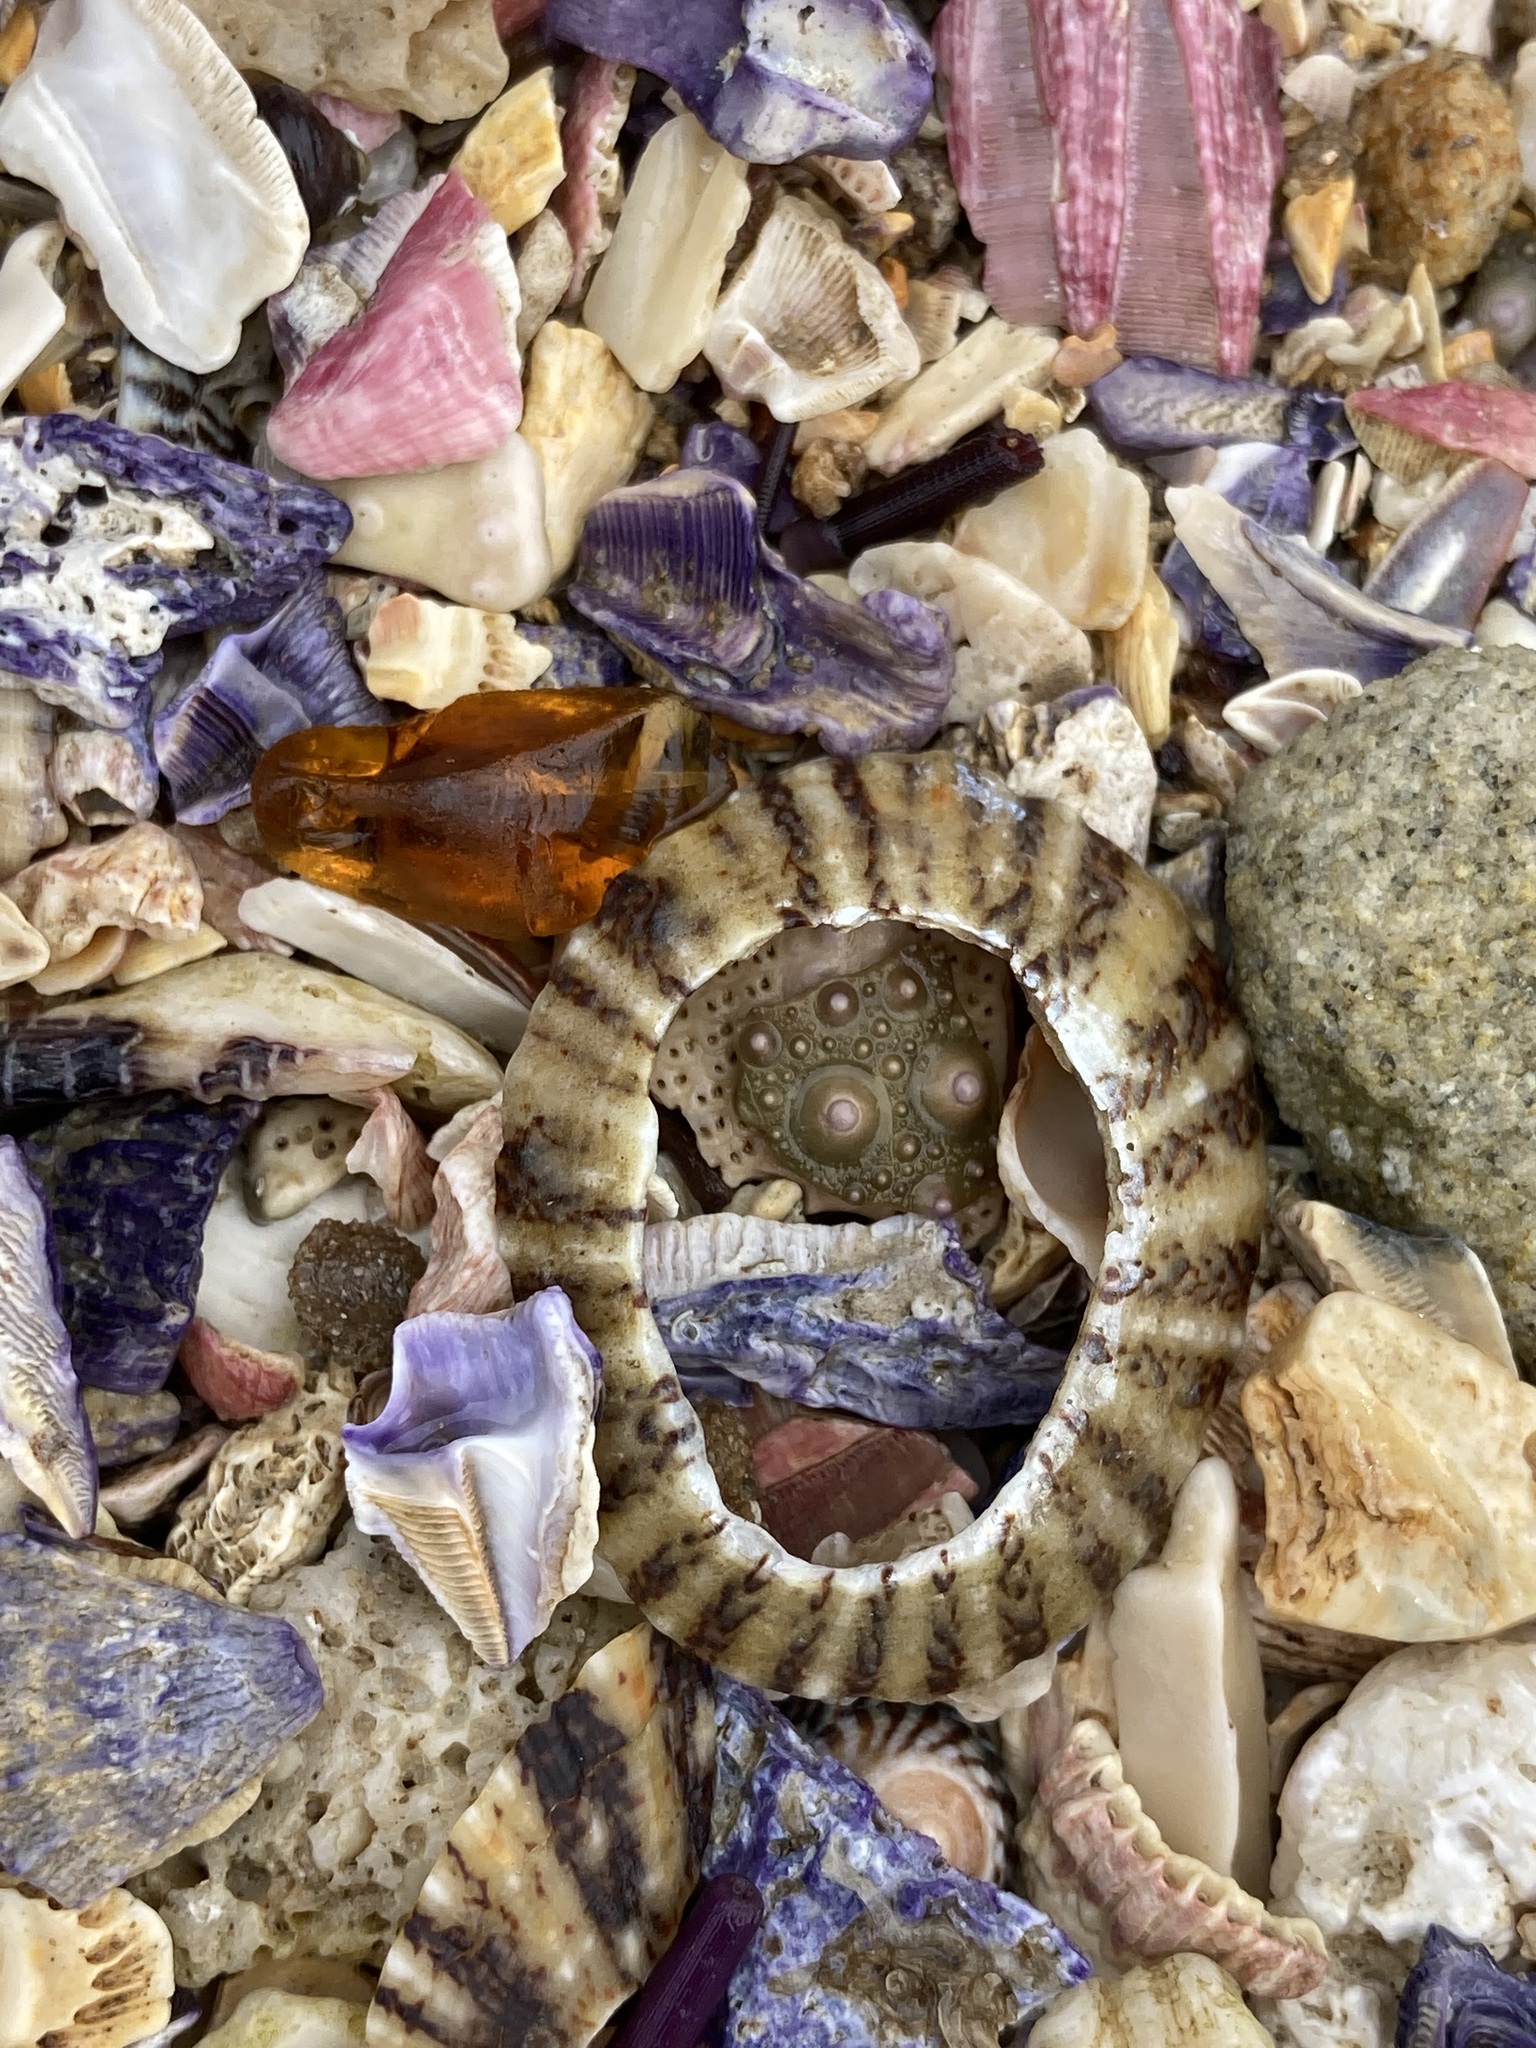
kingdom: Animalia
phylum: Mollusca
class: Gastropoda
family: Nacellidae
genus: Cellana
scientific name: Cellana tramoserica
